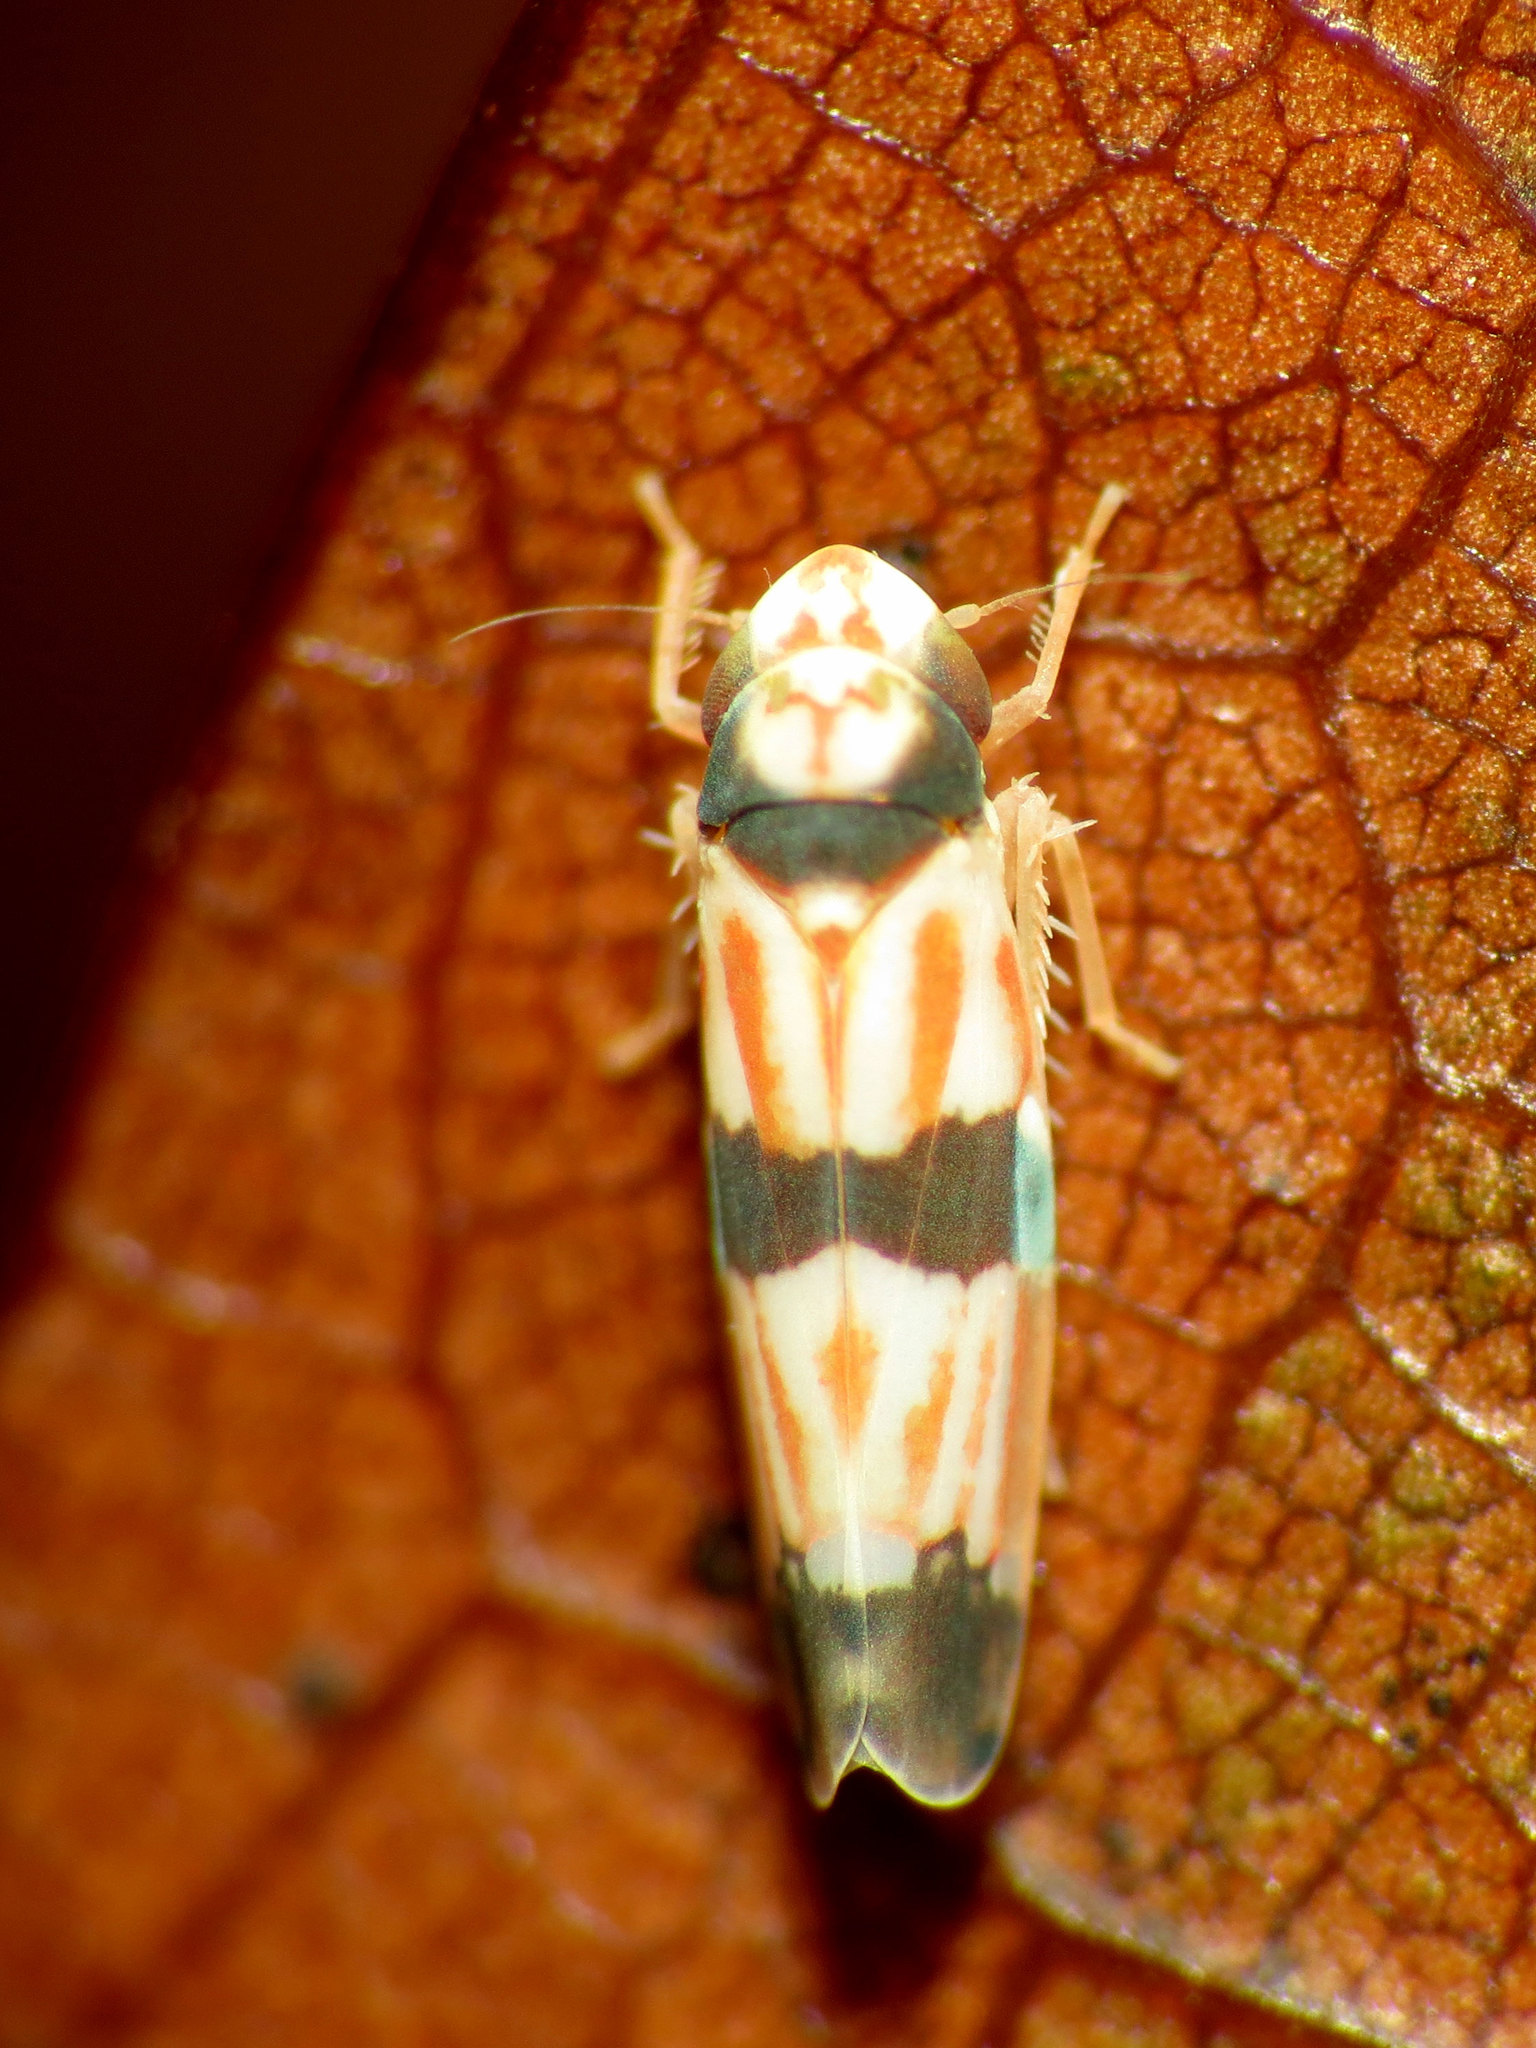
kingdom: Animalia
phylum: Arthropoda
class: Insecta
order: Hemiptera
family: Cicadellidae
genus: Erythroneura
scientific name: Erythroneura calycula
